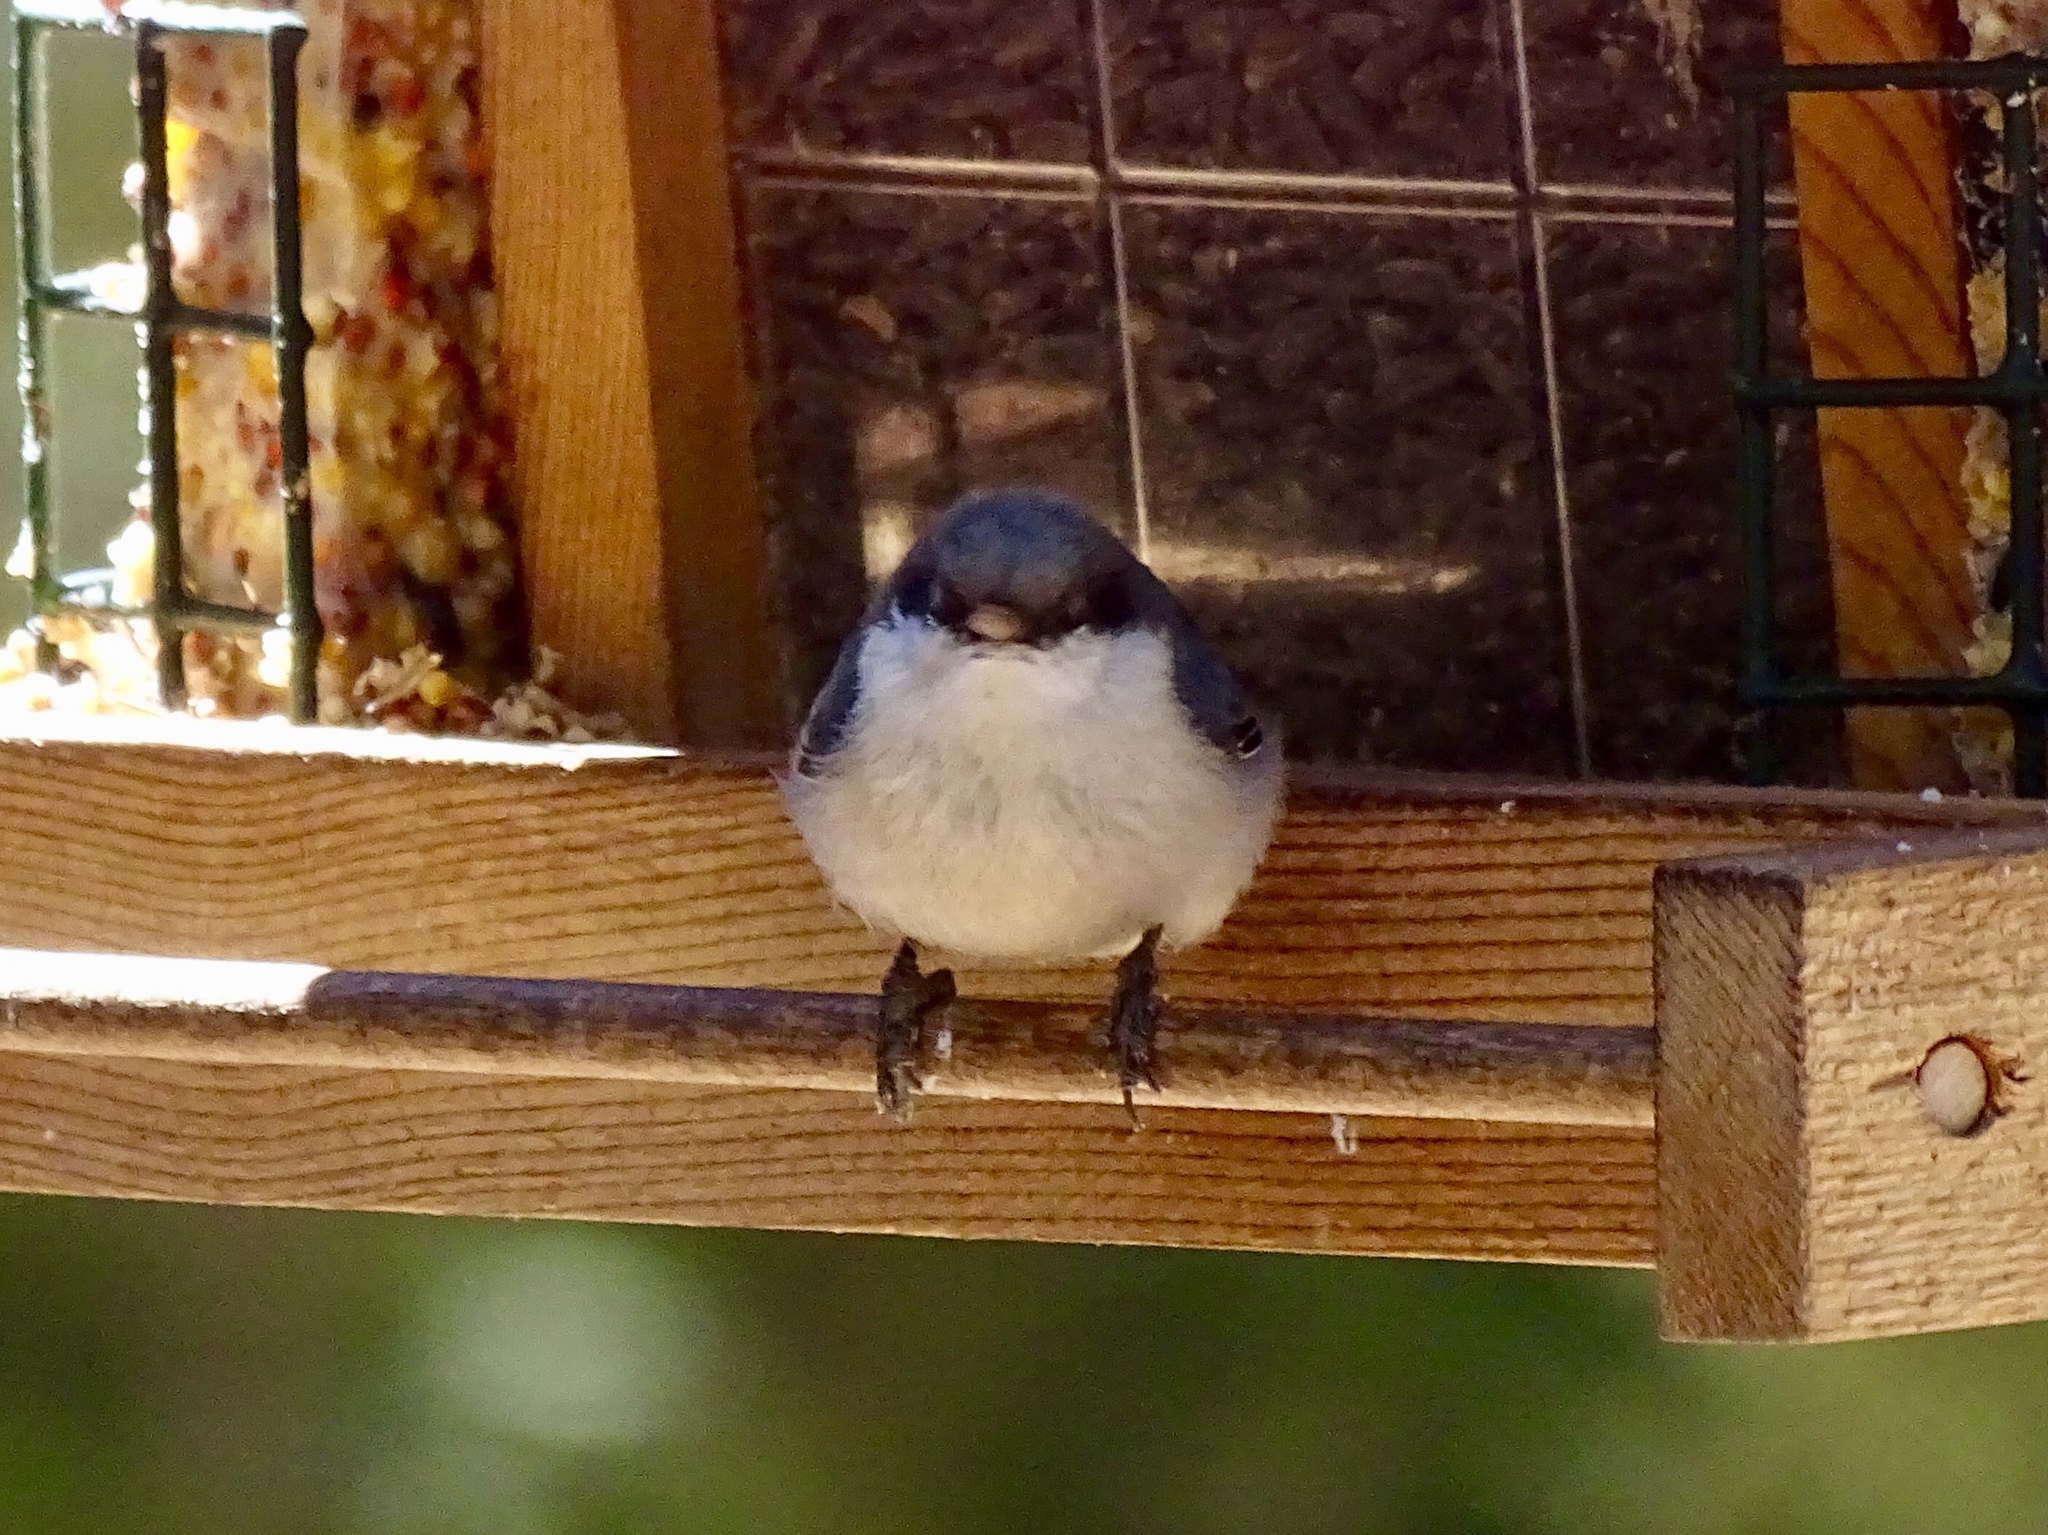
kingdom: Animalia
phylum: Chordata
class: Aves
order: Passeriformes
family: Sittidae
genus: Sitta
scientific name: Sitta pygmaea
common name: Pygmy nuthatch
